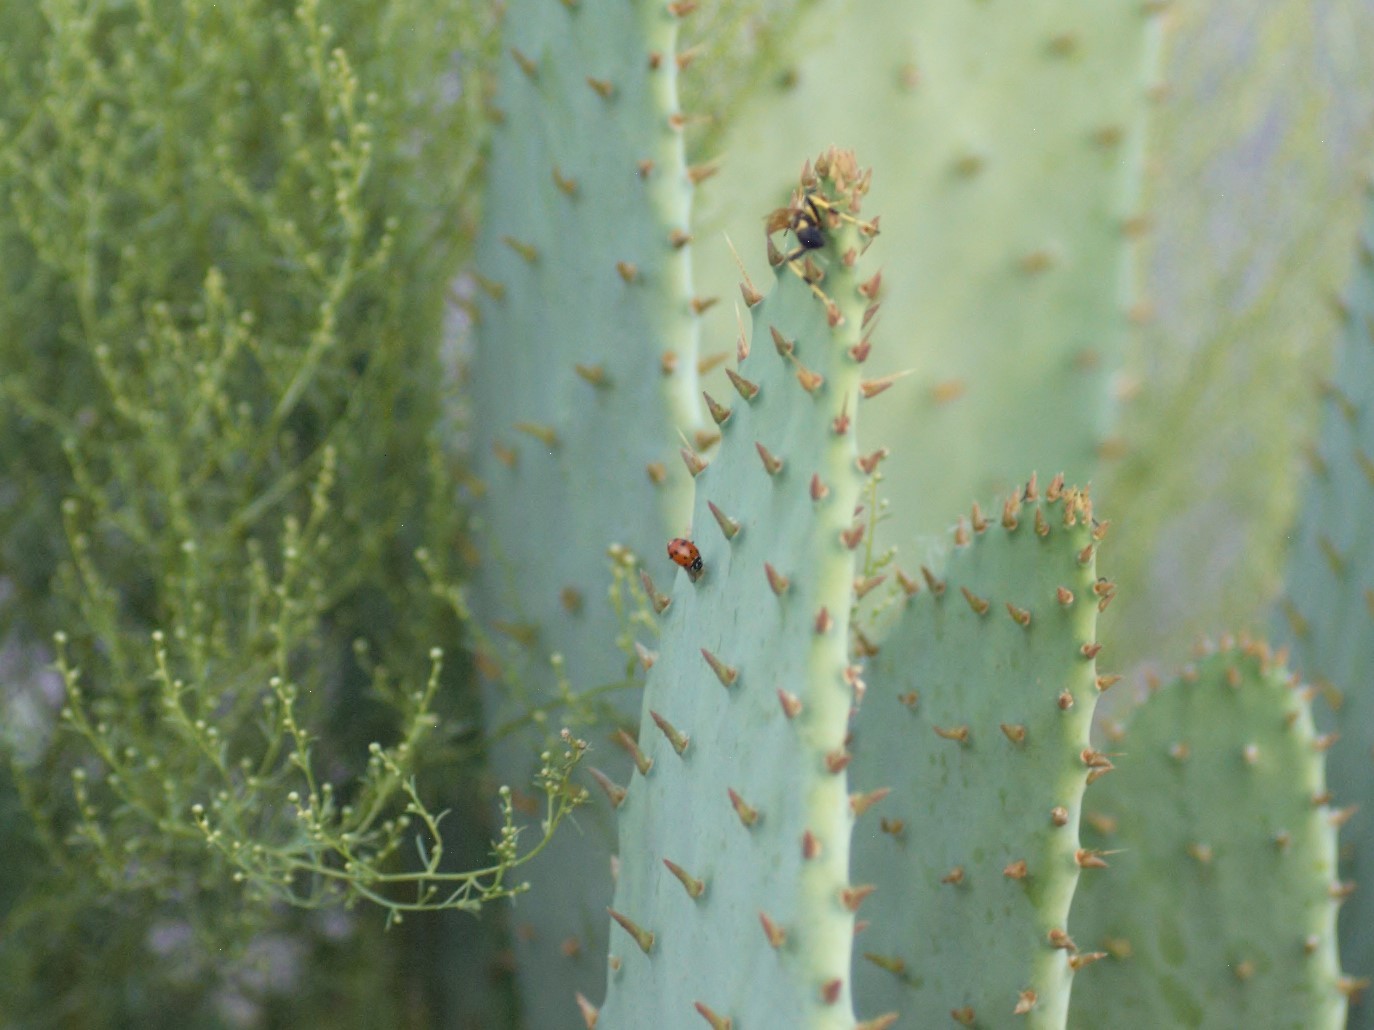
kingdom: Animalia
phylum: Arthropoda
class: Insecta
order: Coleoptera
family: Coccinellidae
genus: Hippodamia
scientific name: Hippodamia convergens
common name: Convergent lady beetle
